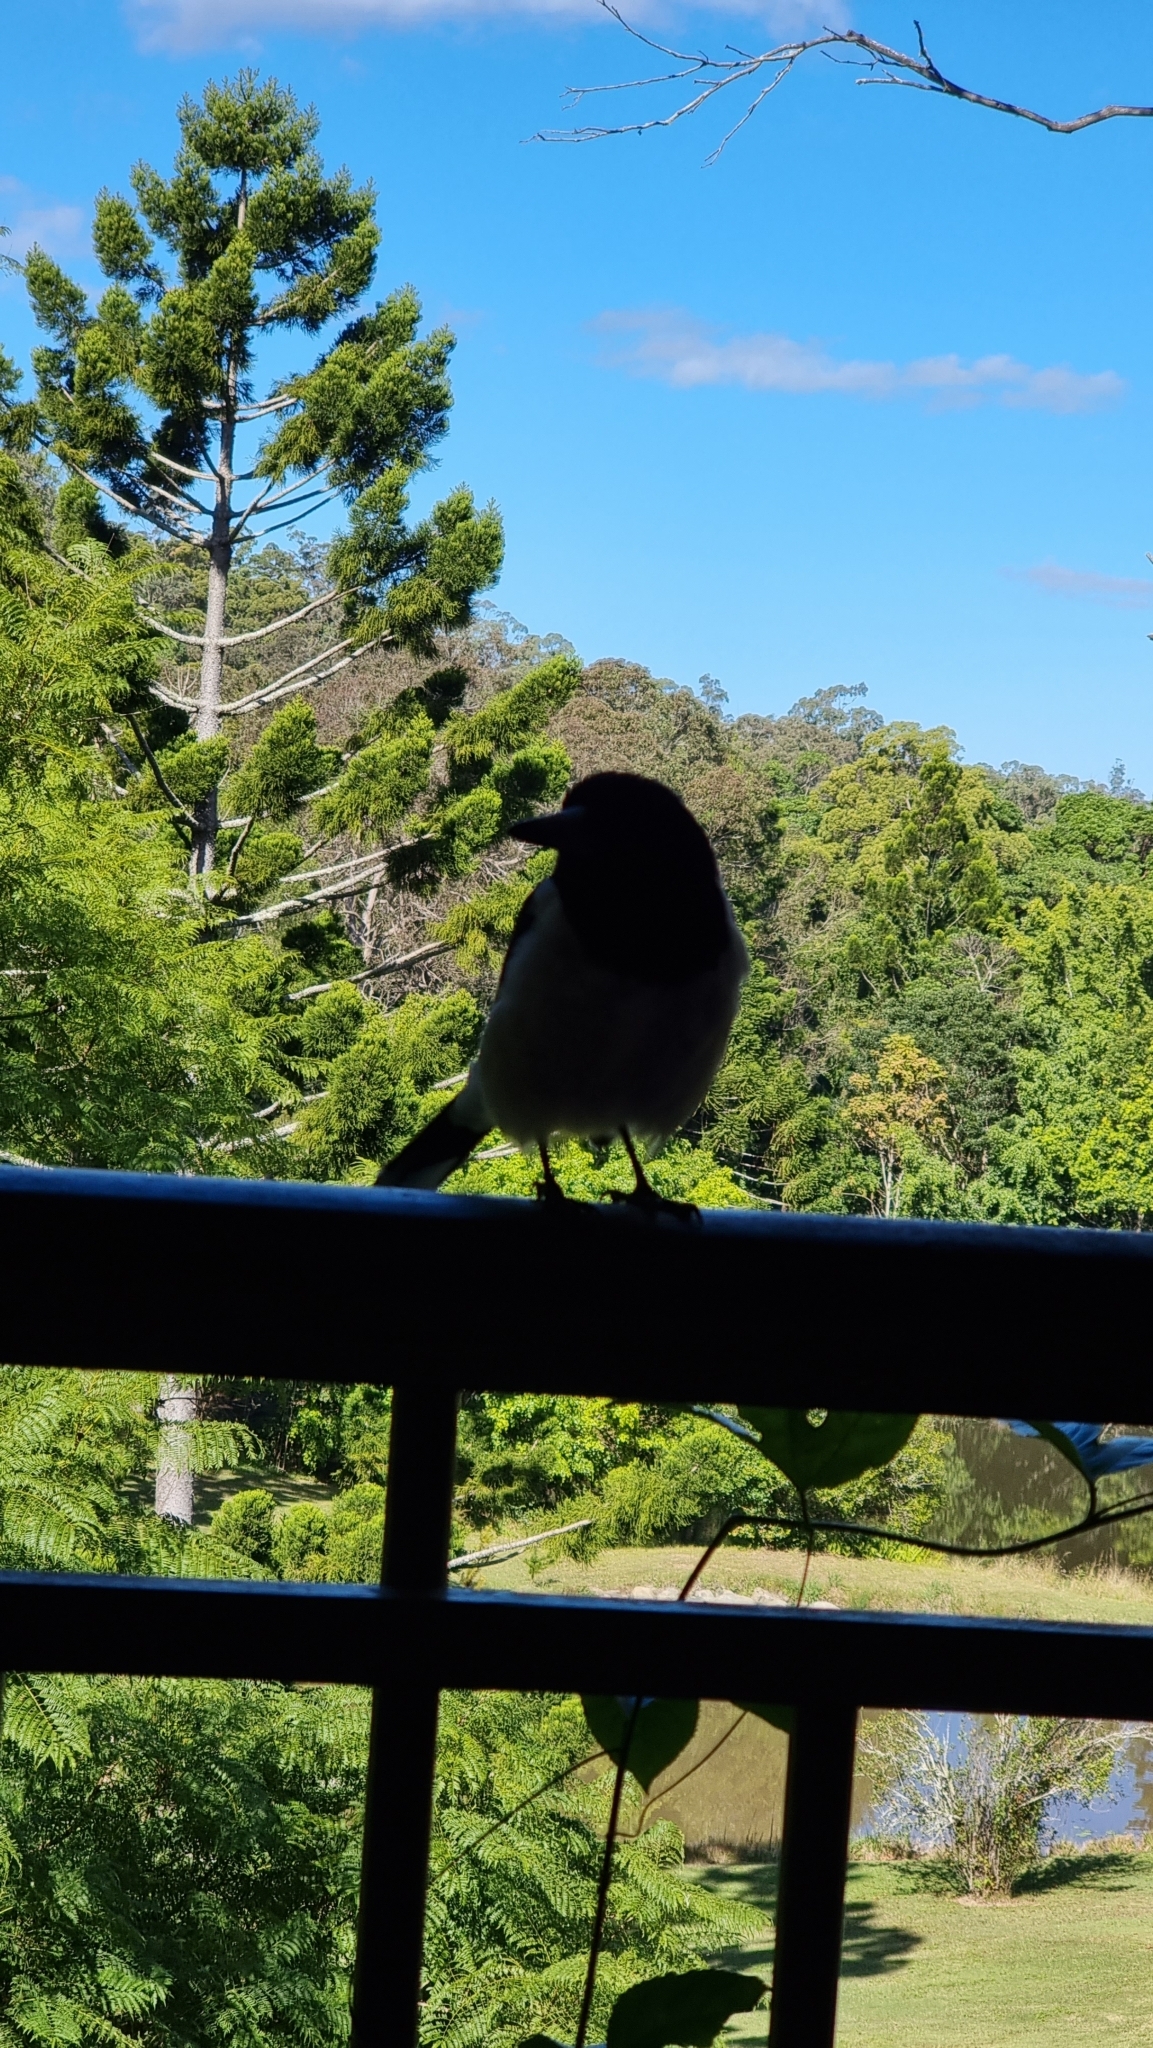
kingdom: Animalia
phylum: Chordata
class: Aves
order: Passeriformes
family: Cracticidae
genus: Cracticus
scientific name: Cracticus nigrogularis
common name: Pied butcherbird
